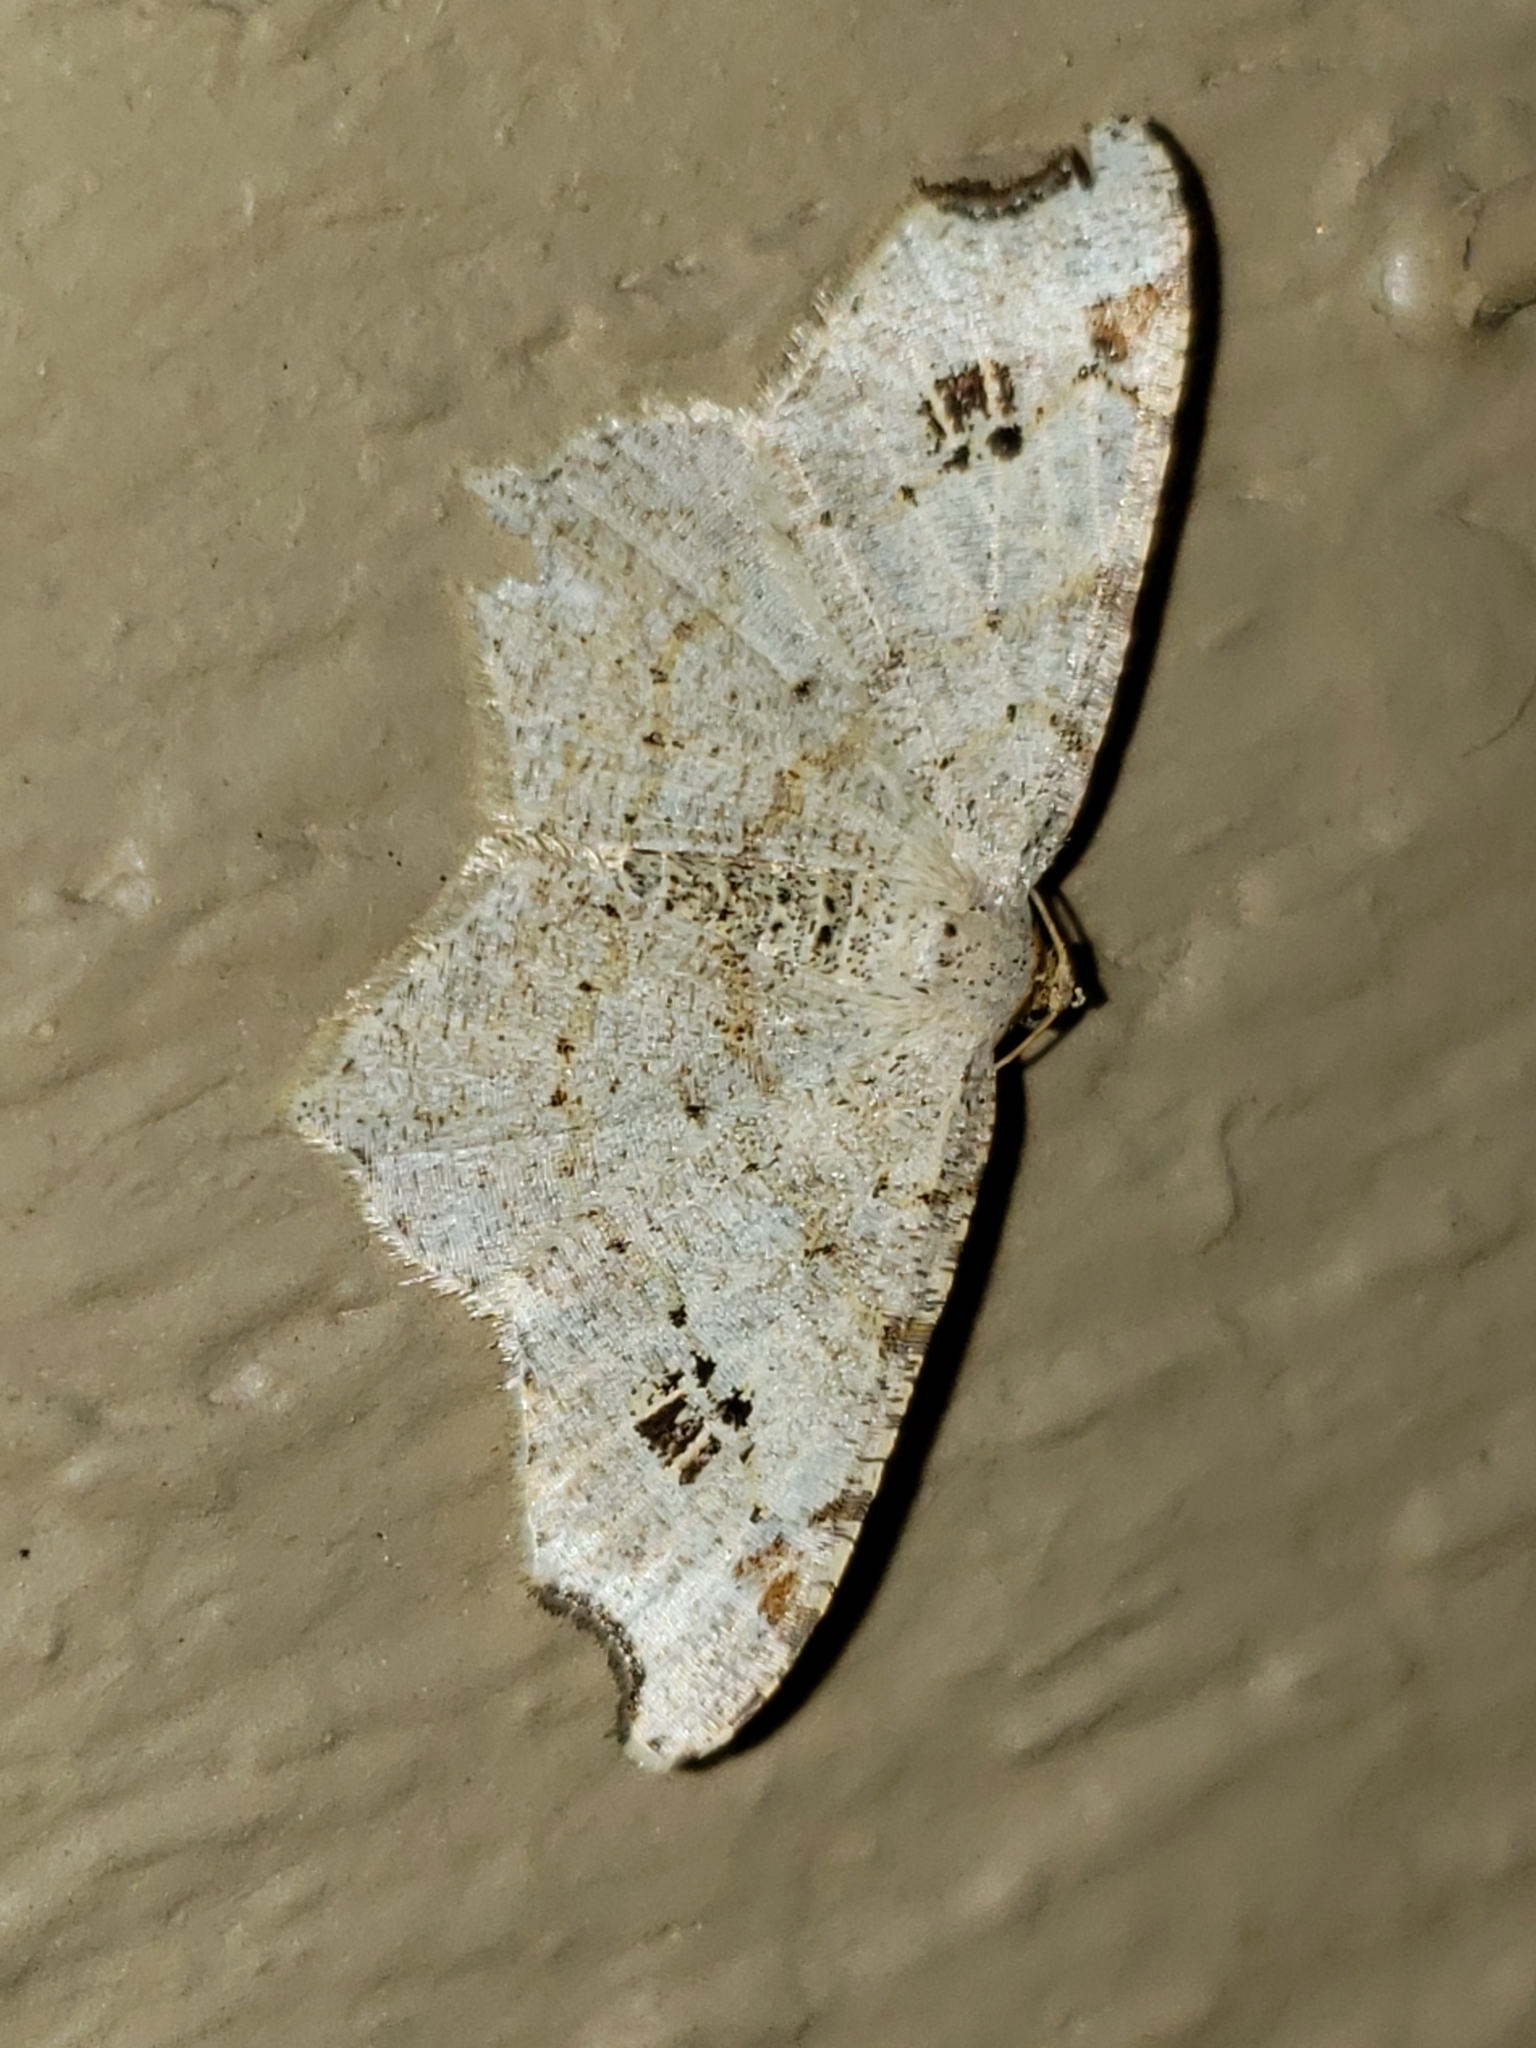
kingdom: Animalia
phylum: Arthropoda
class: Insecta
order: Lepidoptera
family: Geometridae
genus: Macaria
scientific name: Macaria aemulataria
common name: Common angle
